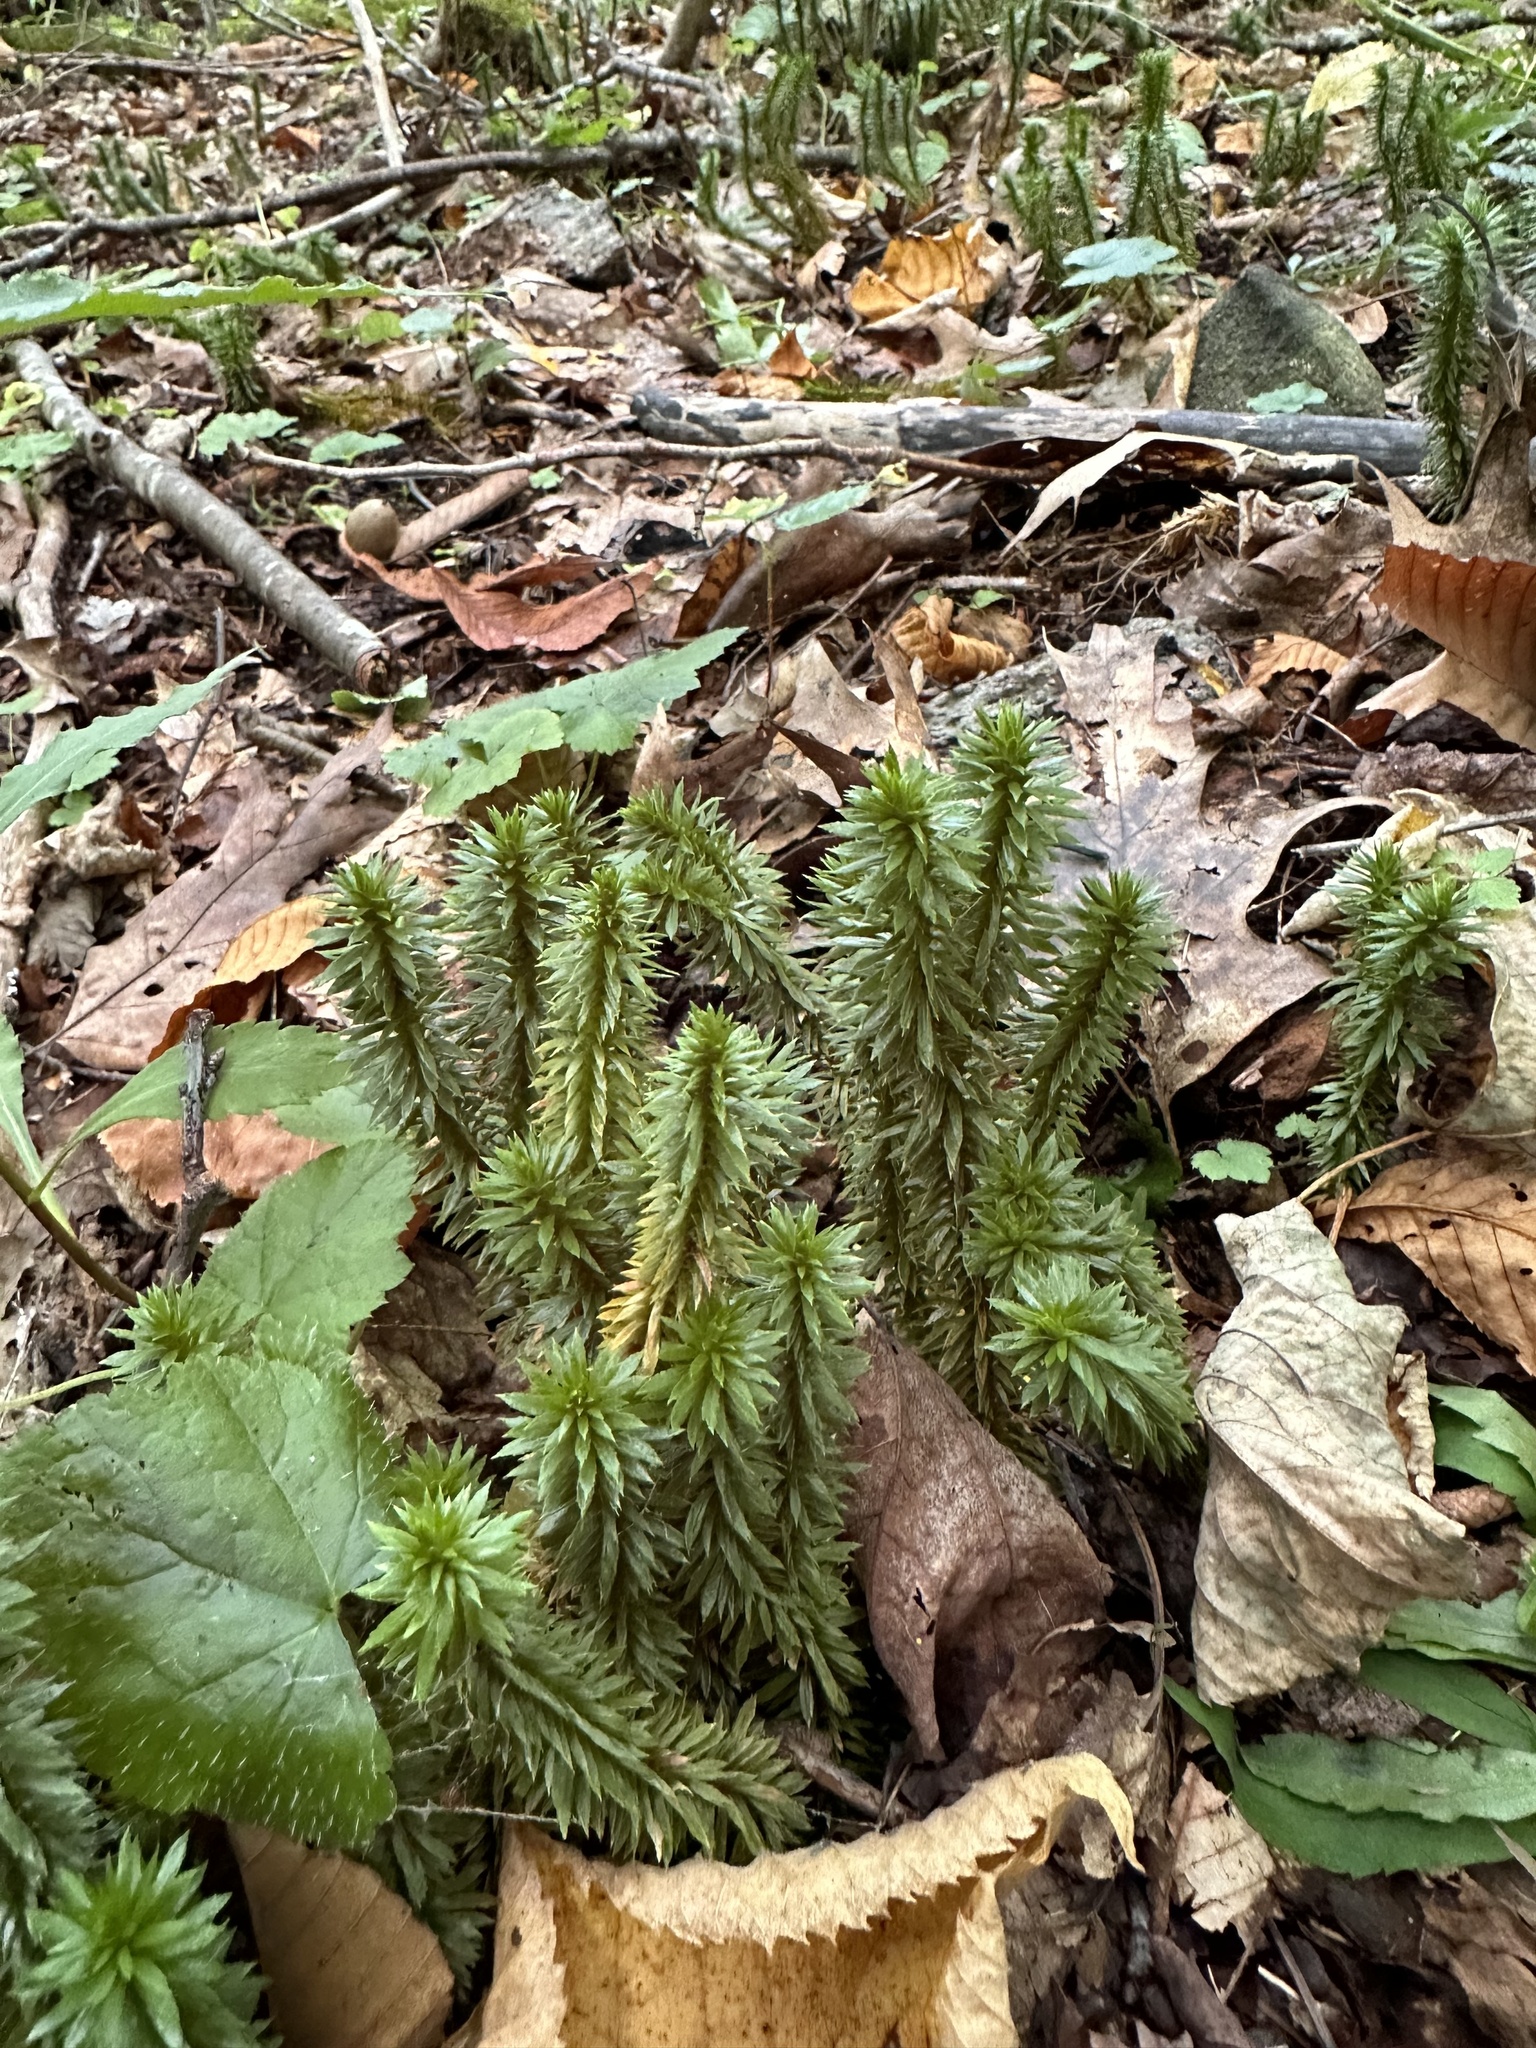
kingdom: Plantae
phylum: Tracheophyta
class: Lycopodiopsida
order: Lycopodiales
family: Lycopodiaceae
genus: Huperzia
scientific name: Huperzia lucidula
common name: Shining clubmoss
